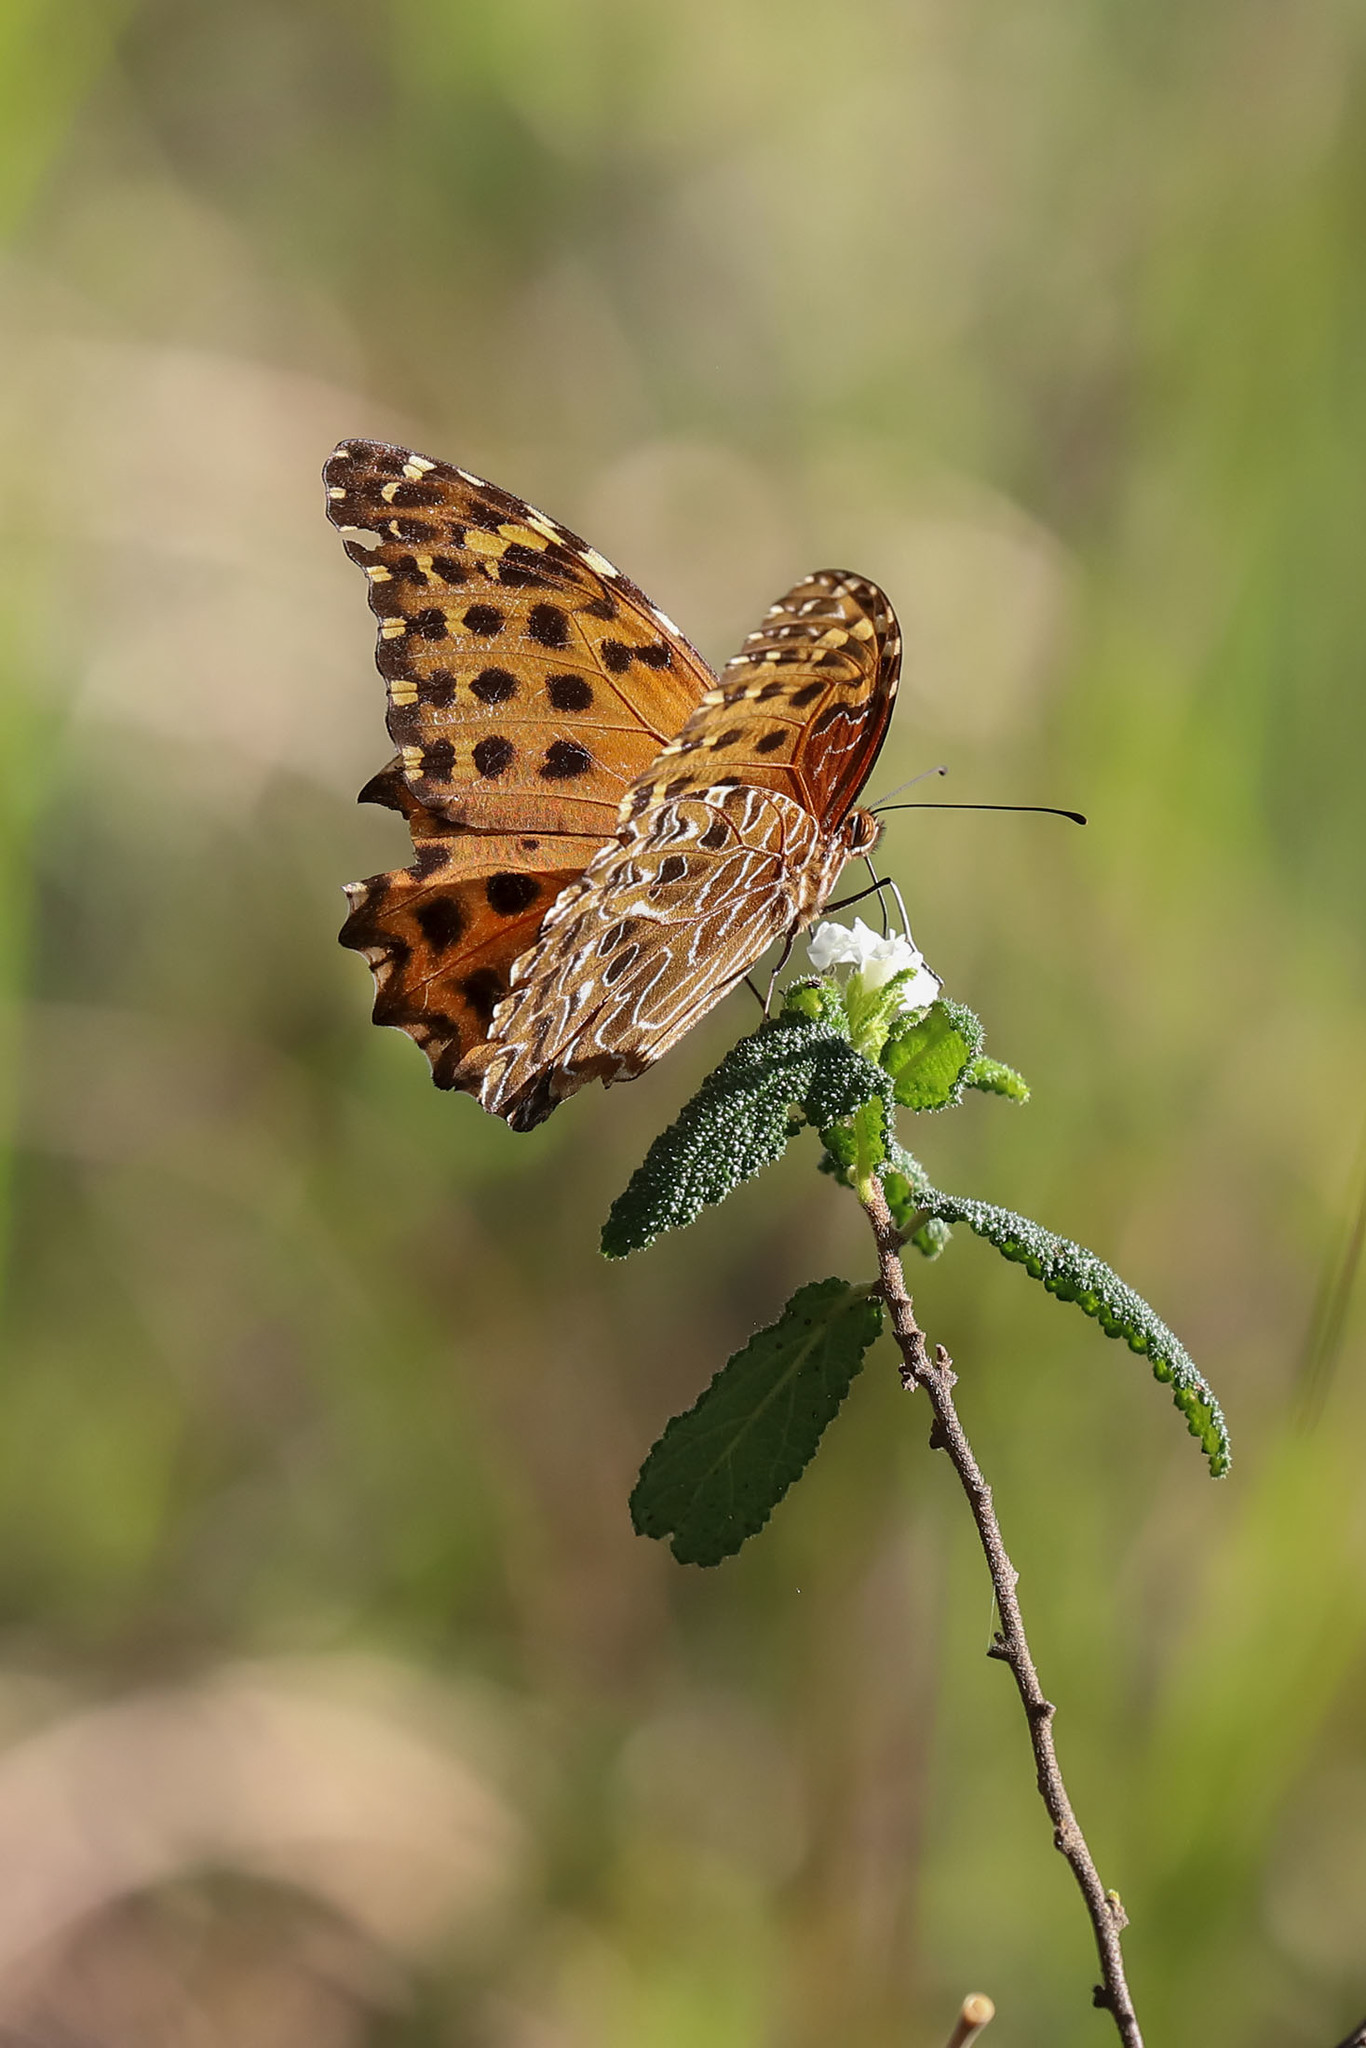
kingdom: Animalia
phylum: Arthropoda
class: Insecta
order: Lepidoptera
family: Nymphalidae
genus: Anetia
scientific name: Anetia pantheratus
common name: False fritillary
